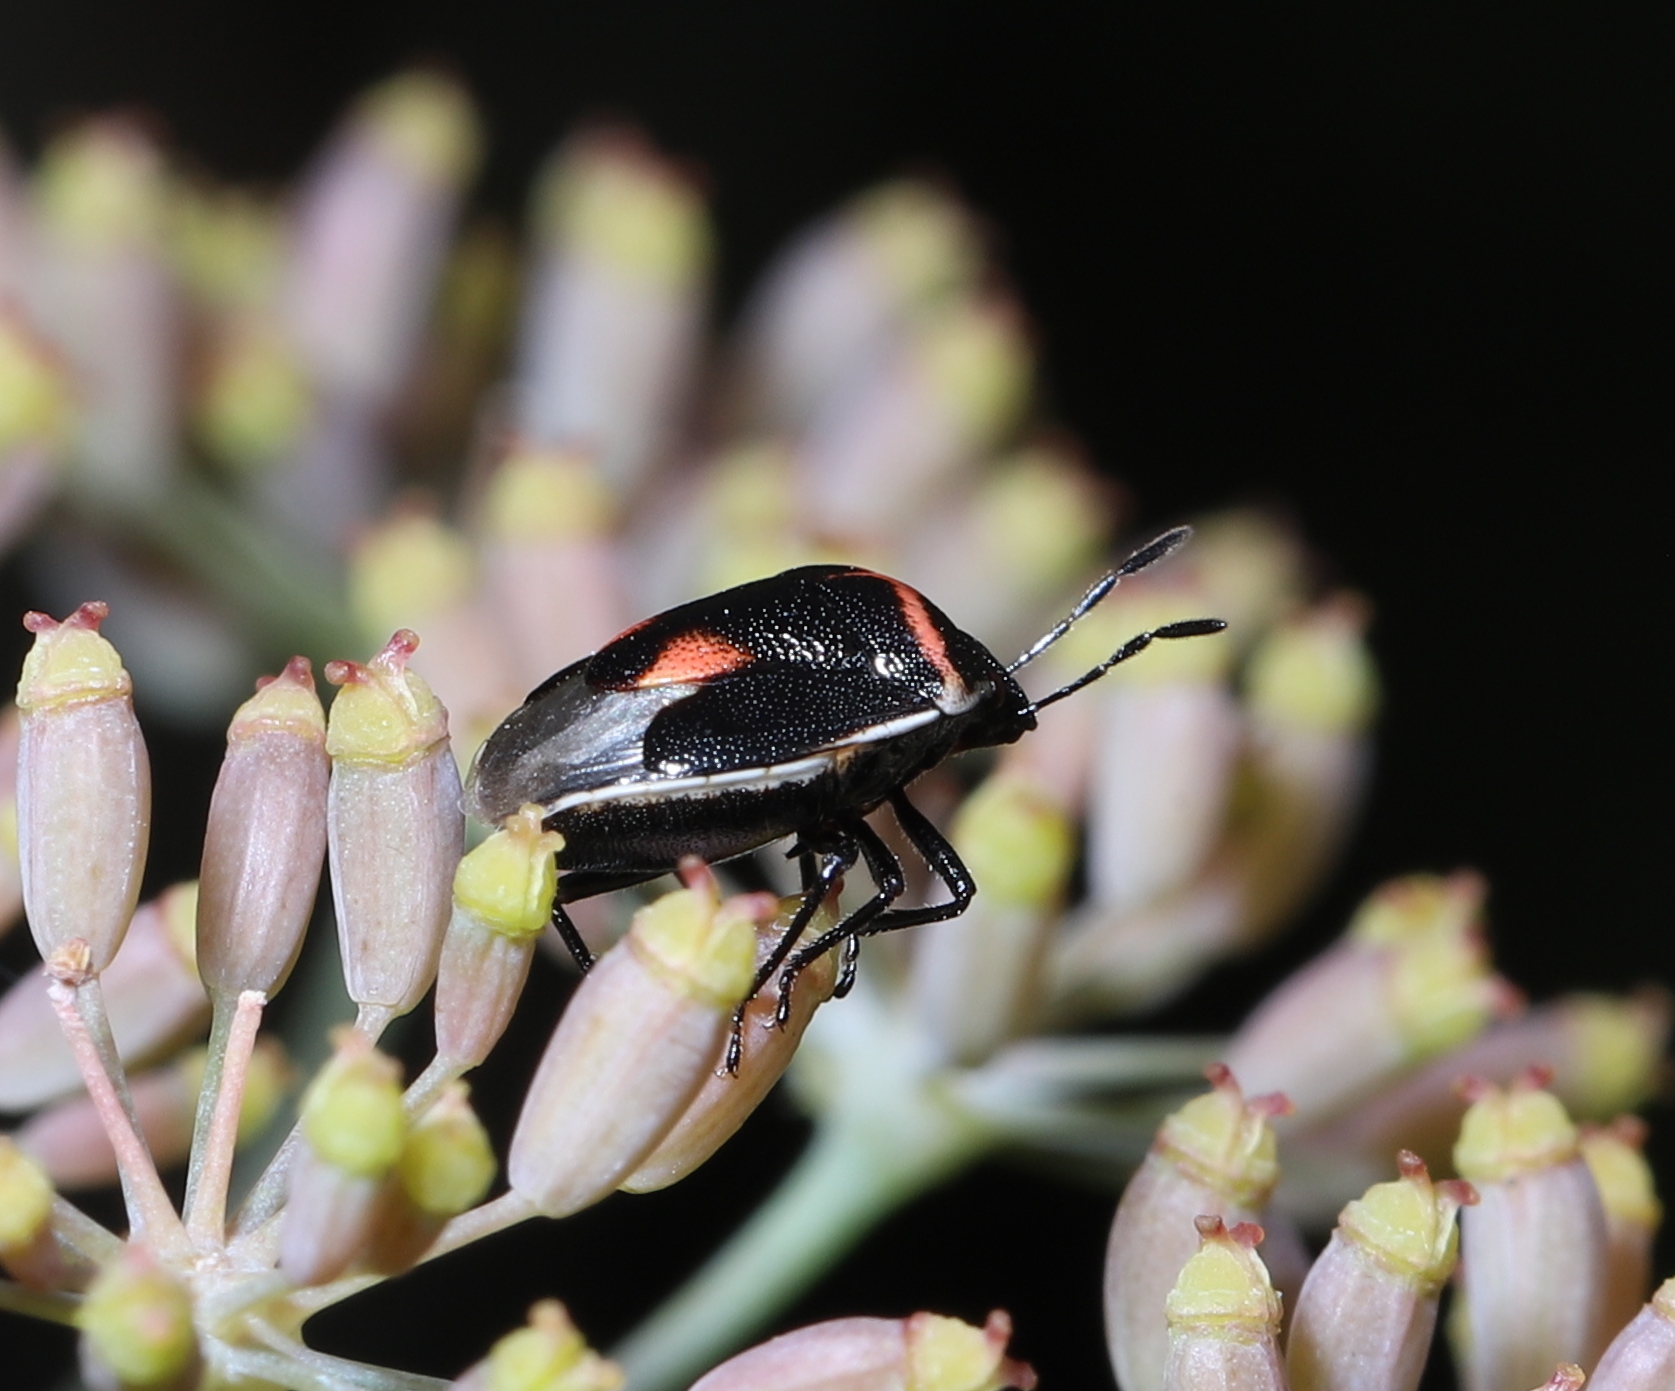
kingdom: Animalia
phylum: Arthropoda
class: Insecta
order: Hemiptera
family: Pentatomidae
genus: Cosmopepla
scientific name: Cosmopepla lintneriana
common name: Twice-stabbed stink bug
